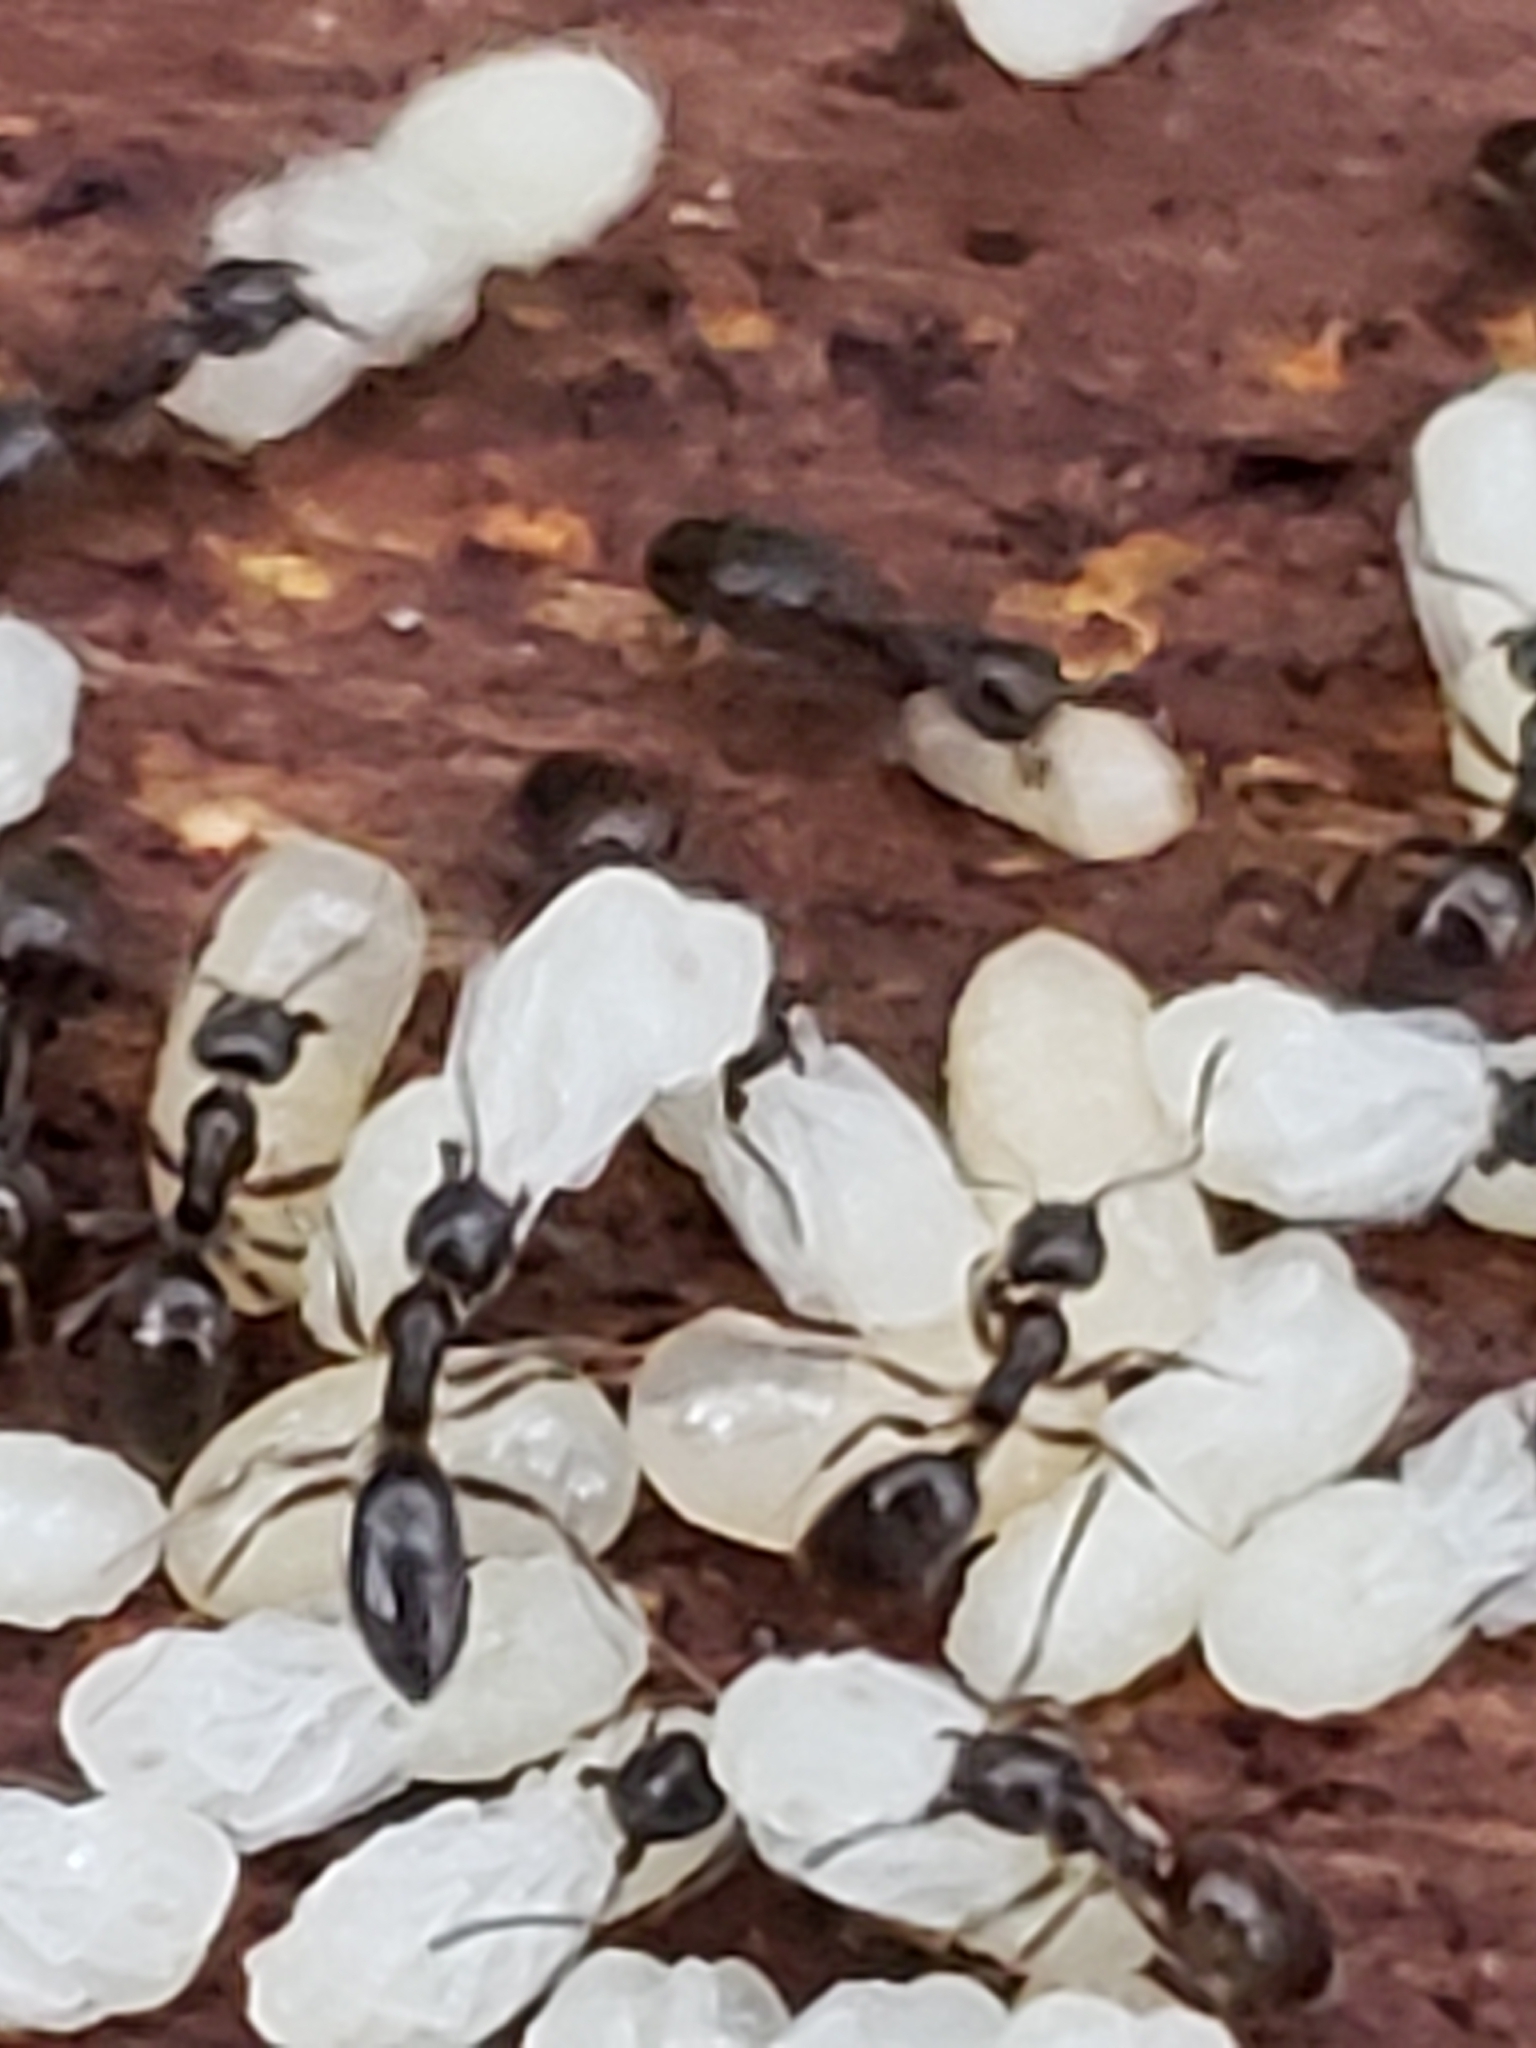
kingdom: Animalia
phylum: Arthropoda
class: Insecta
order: Hymenoptera
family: Formicidae
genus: Tapinoma
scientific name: Tapinoma sessile
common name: Odorous house ant
